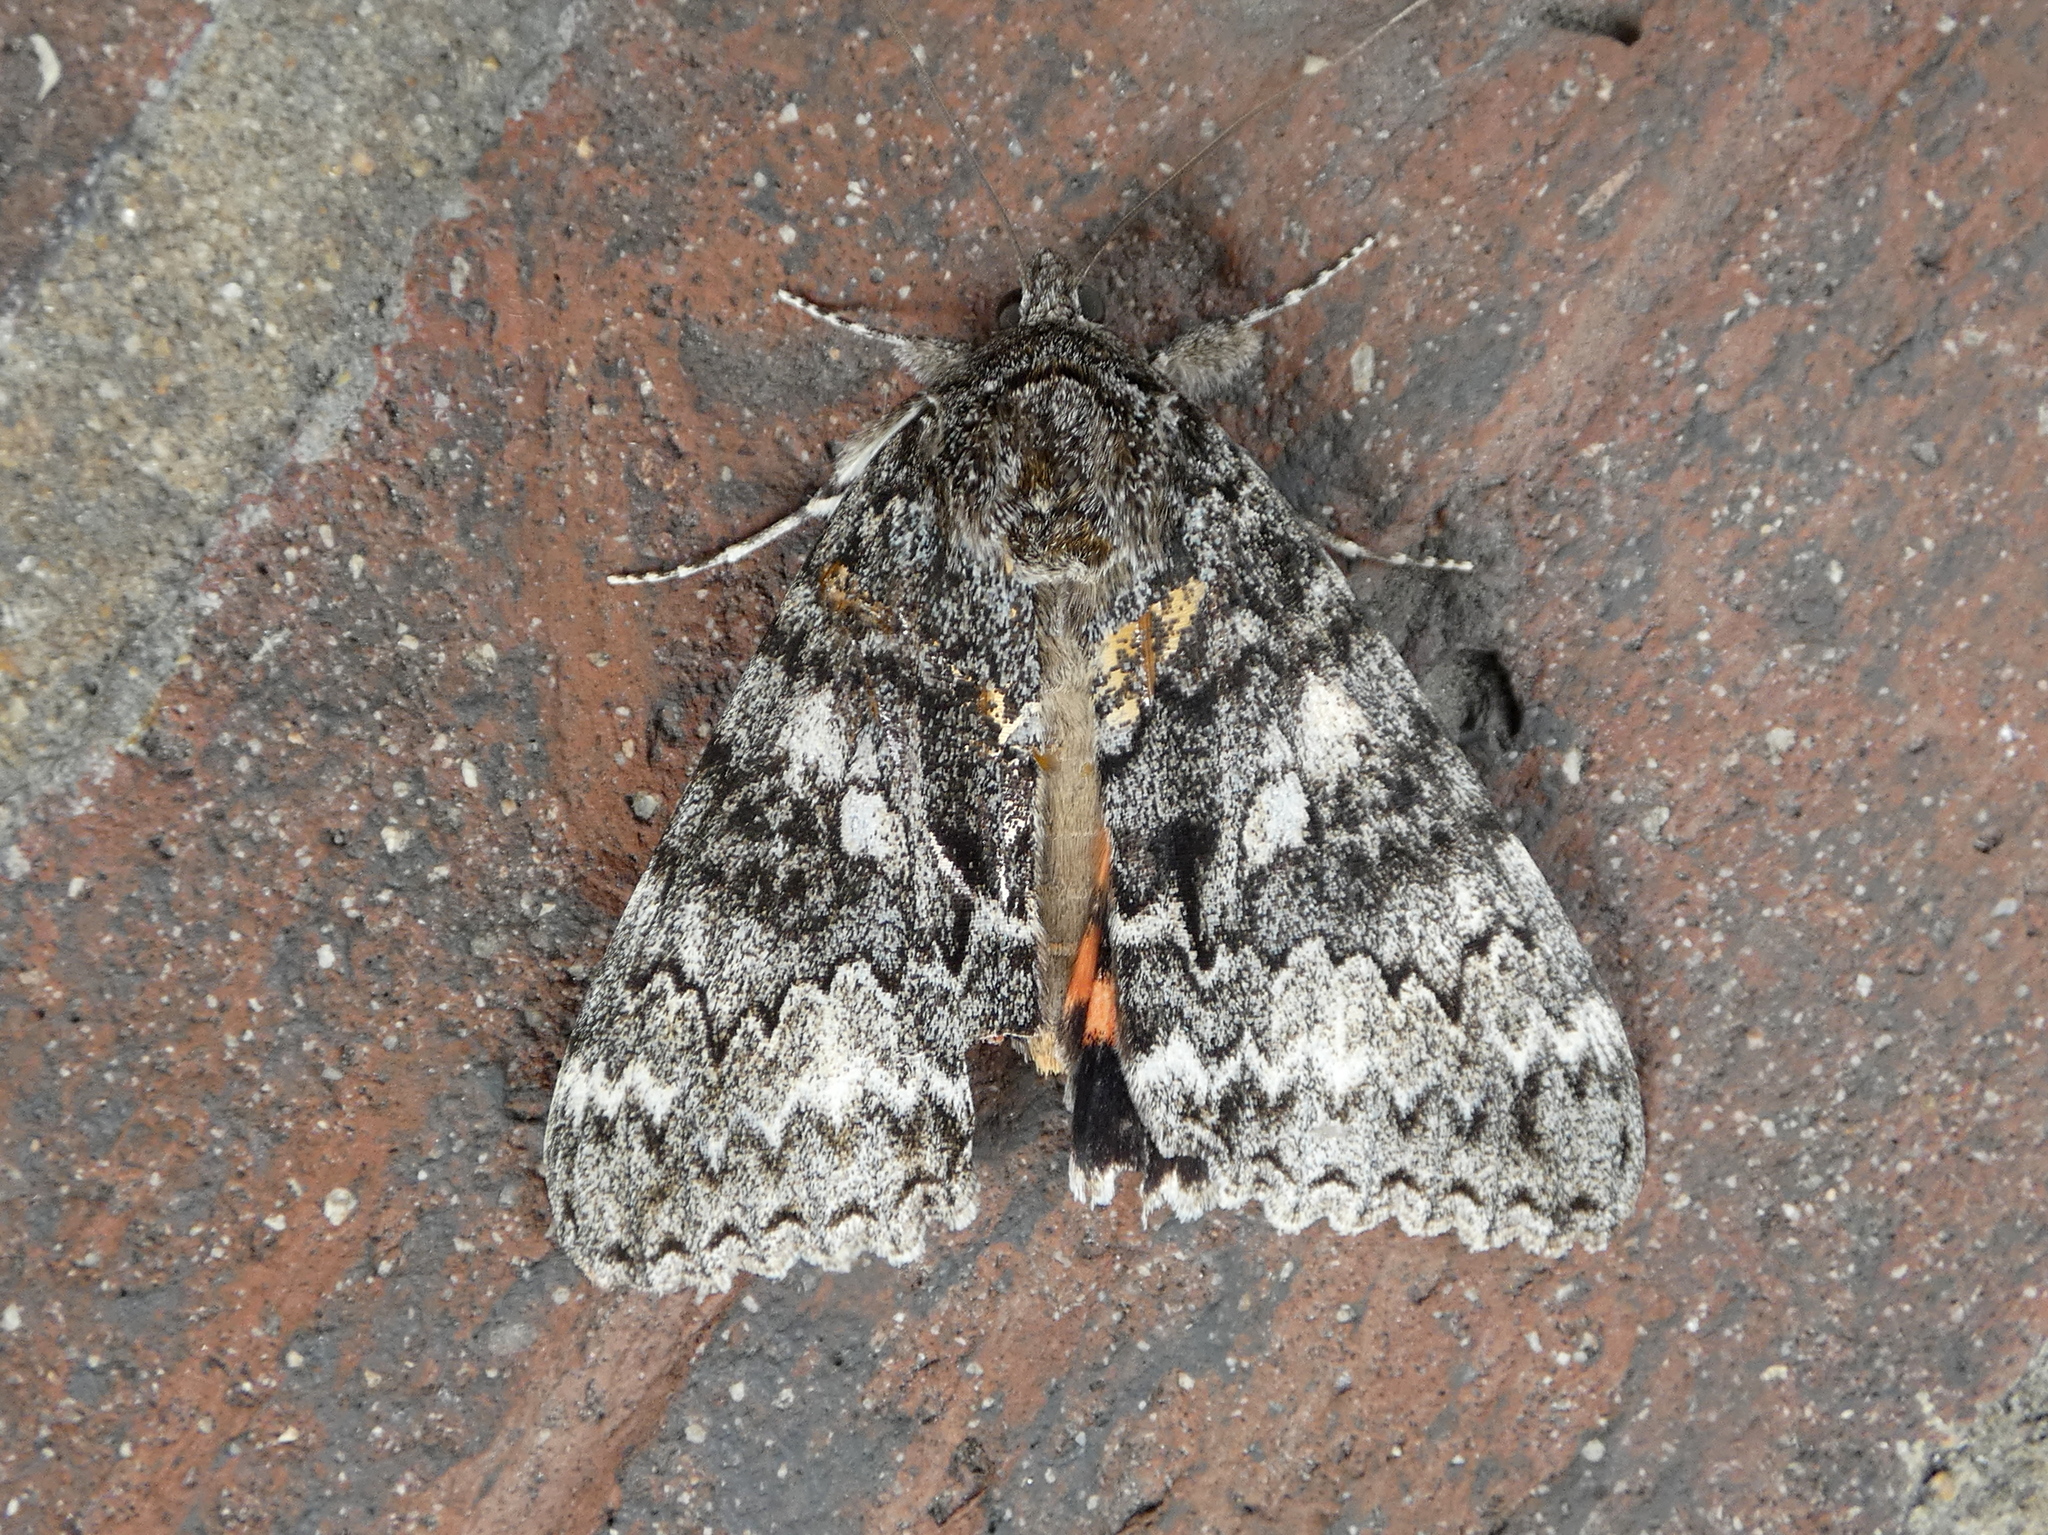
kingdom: Animalia
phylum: Arthropoda
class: Insecta
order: Lepidoptera
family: Erebidae
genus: Catocala
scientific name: Catocala unijuga
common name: Once-married underwing
